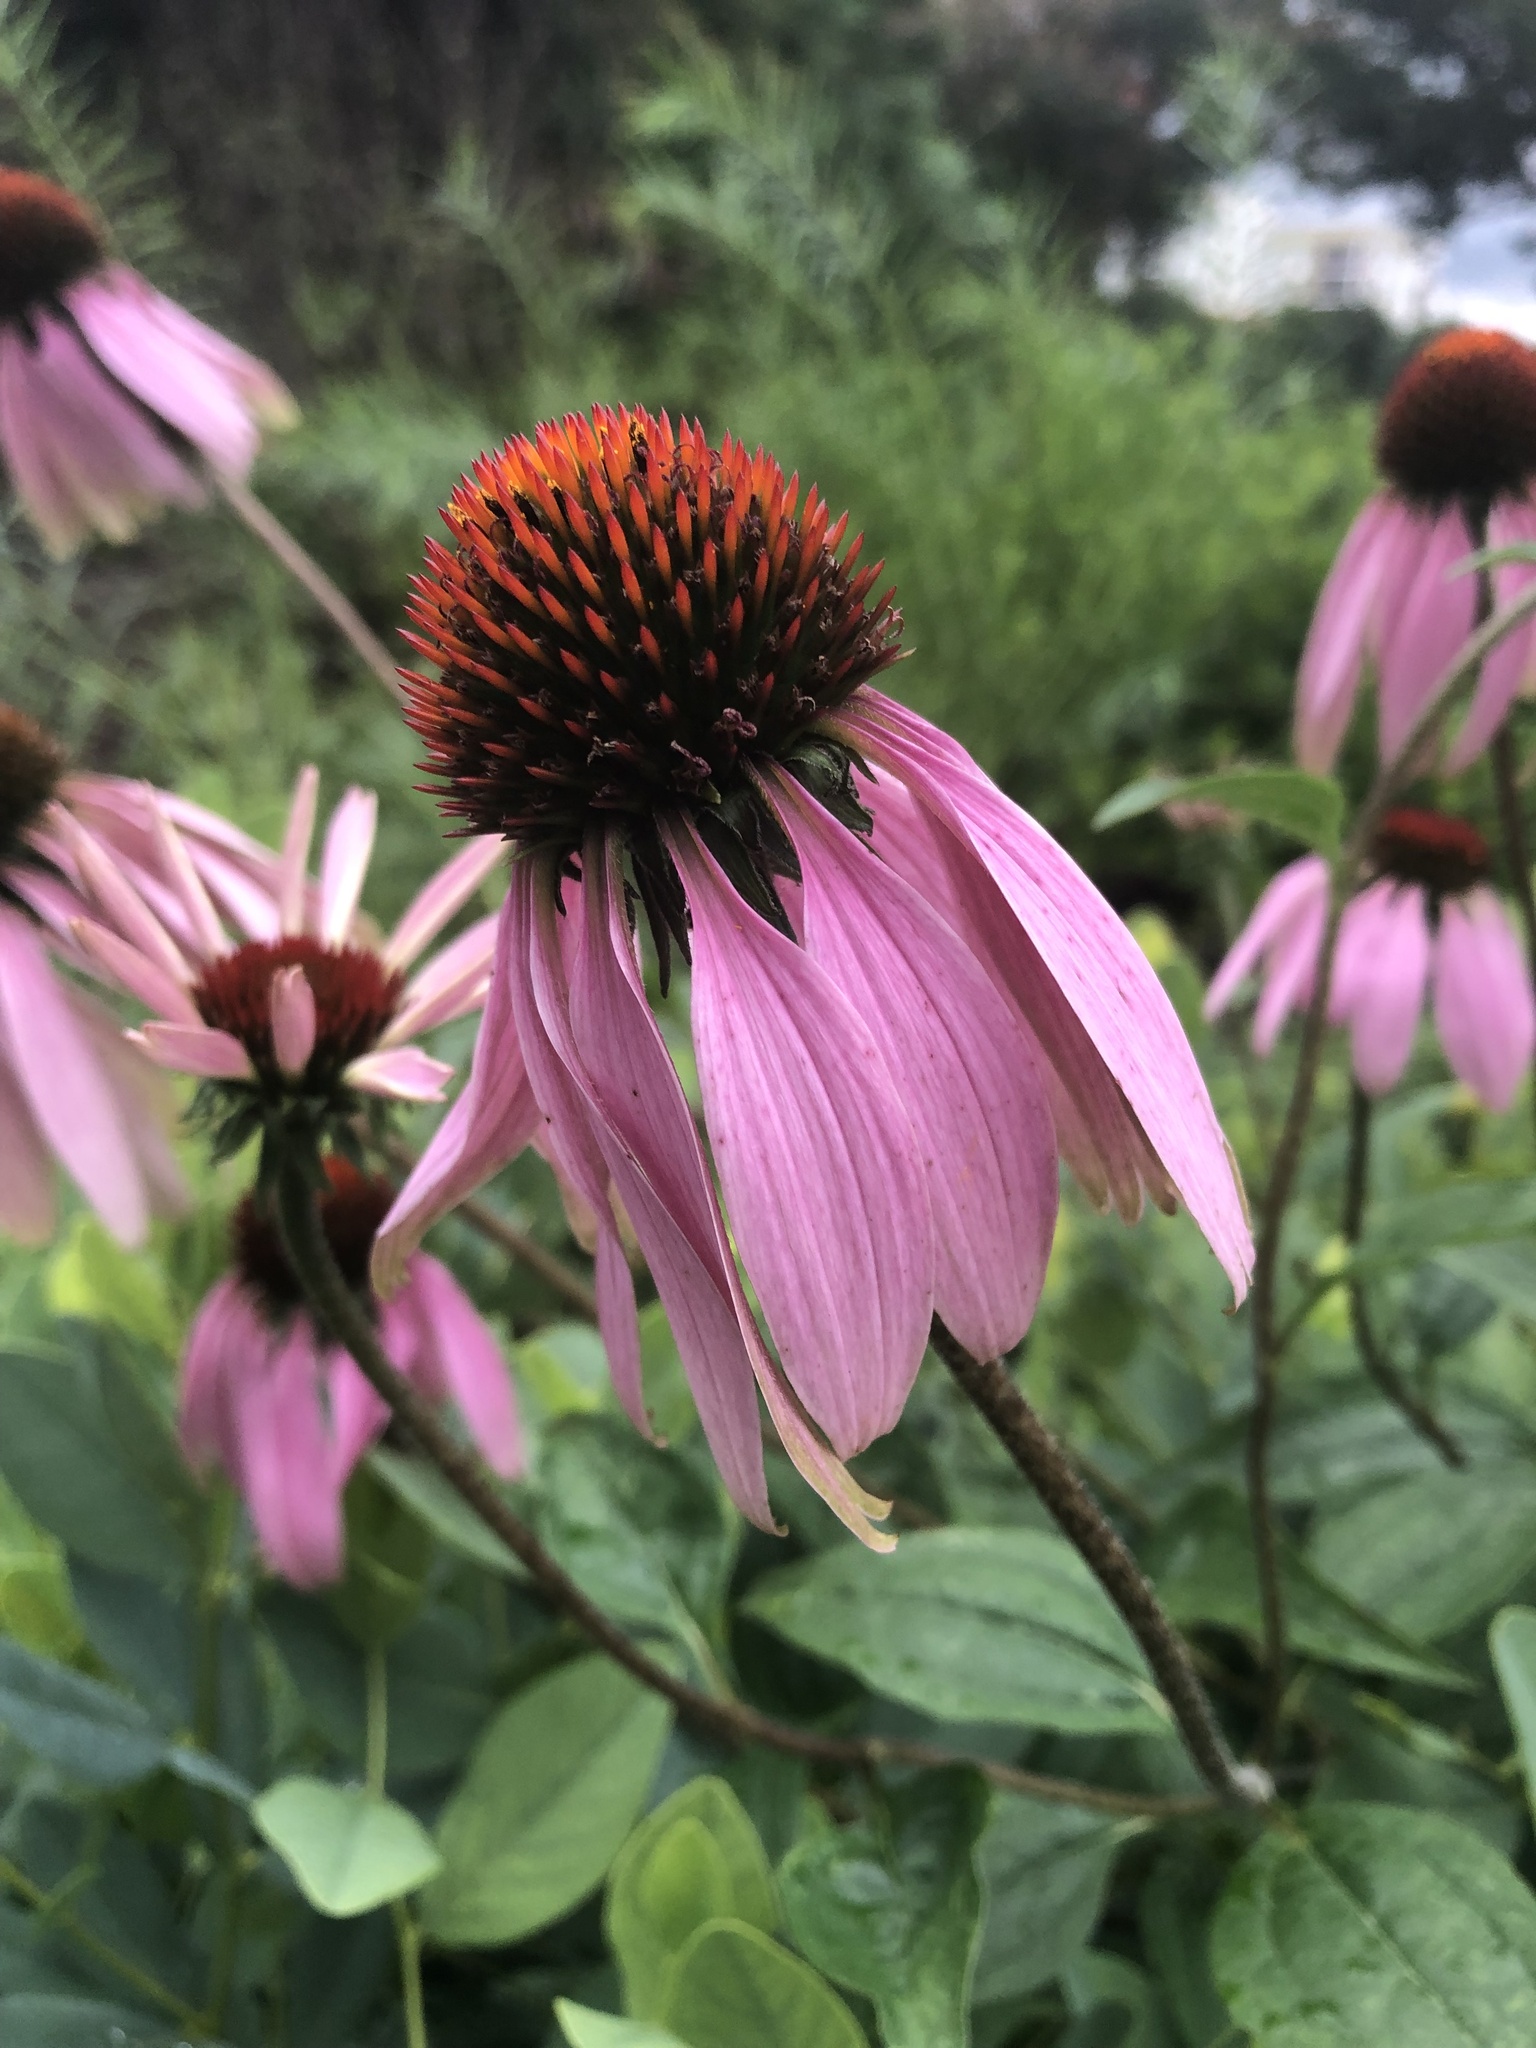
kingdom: Plantae
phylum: Tracheophyta
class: Magnoliopsida
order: Asterales
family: Asteraceae
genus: Echinacea
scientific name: Echinacea purpurea
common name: Broad-leaved purple coneflower
